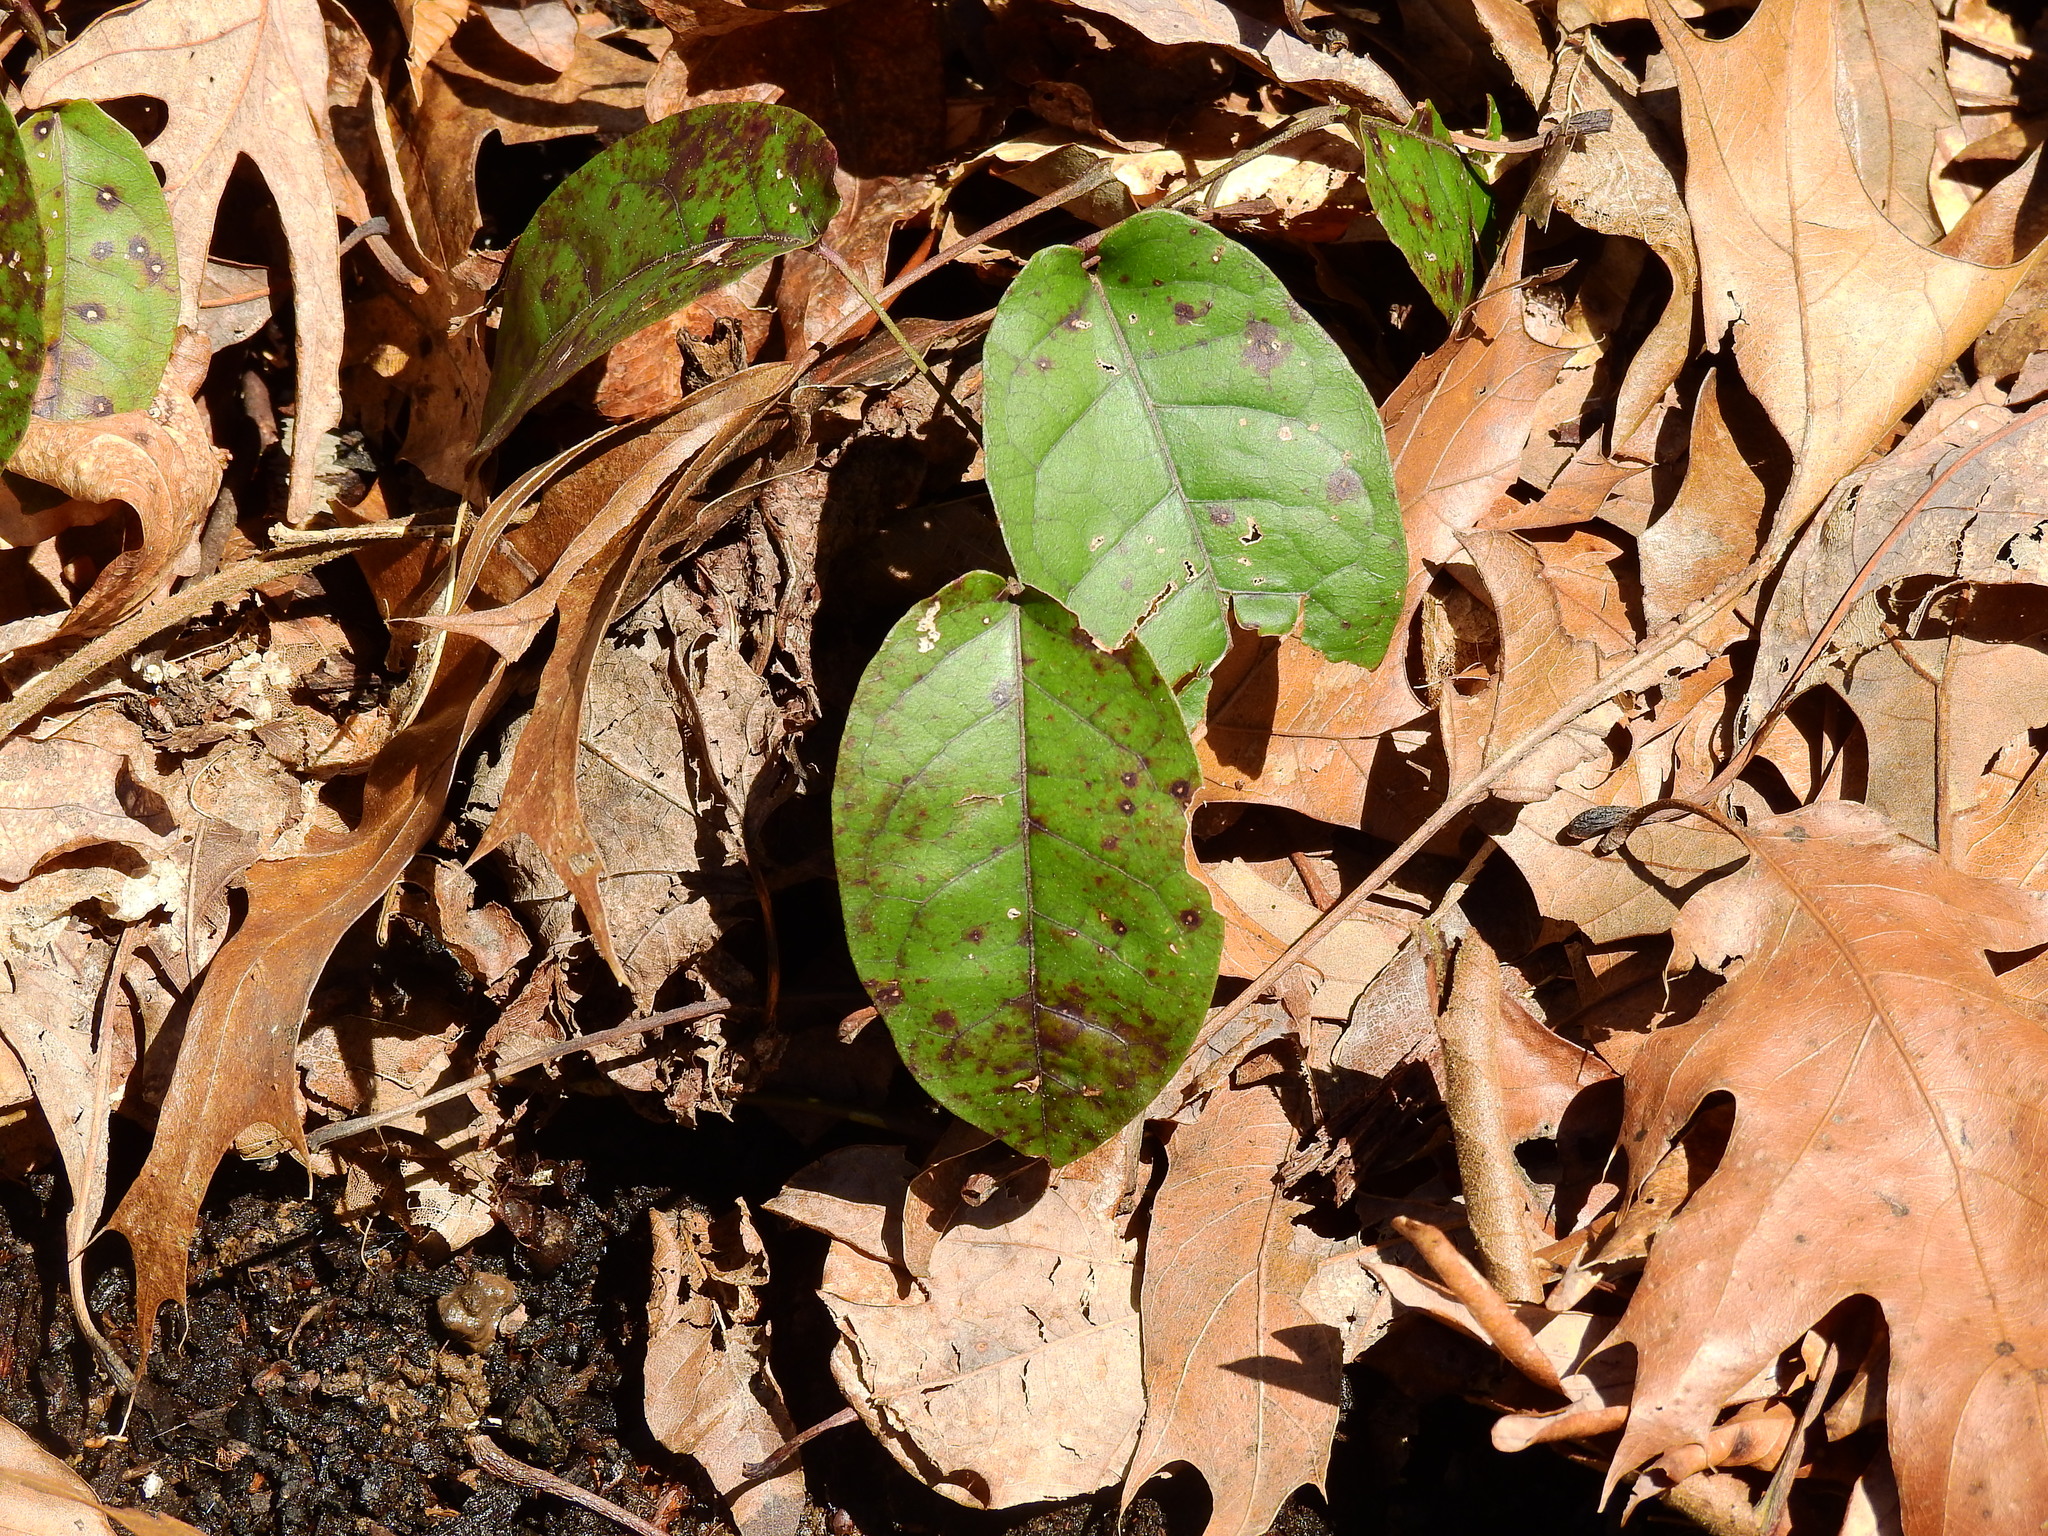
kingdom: Plantae
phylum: Tracheophyta
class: Magnoliopsida
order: Lamiales
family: Bignoniaceae
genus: Bignonia
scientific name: Bignonia capreolata
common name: Crossvine
